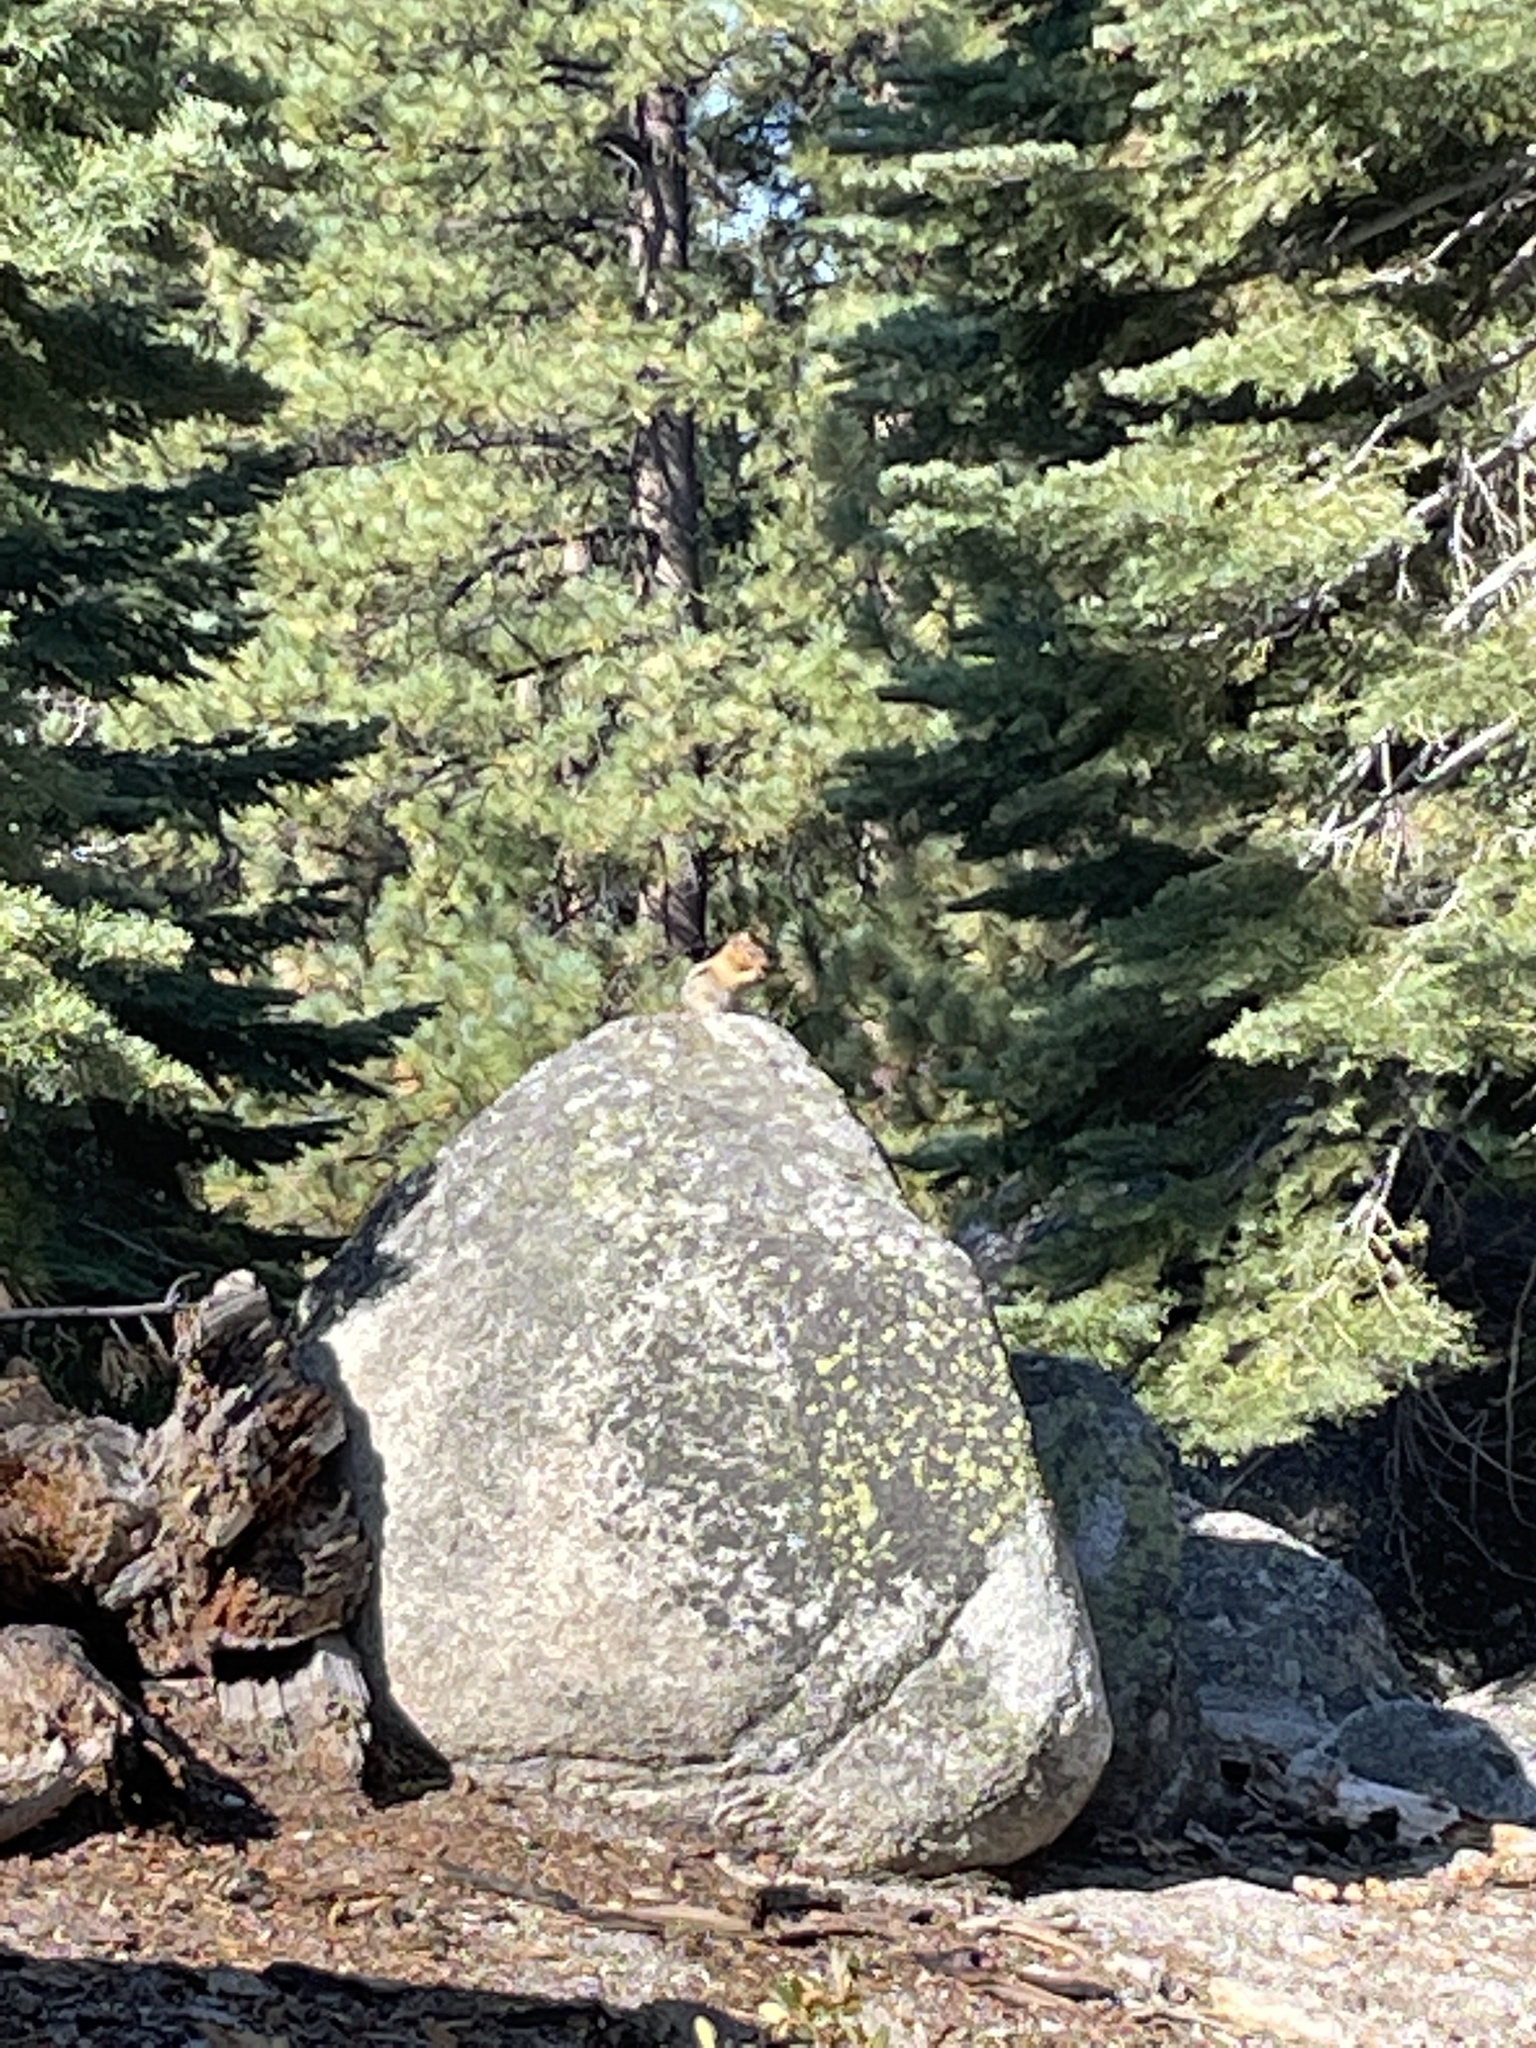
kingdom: Animalia
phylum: Chordata
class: Mammalia
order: Rodentia
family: Sciuridae
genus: Callospermophilus
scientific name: Callospermophilus lateralis
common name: Golden-mantled ground squirrel
